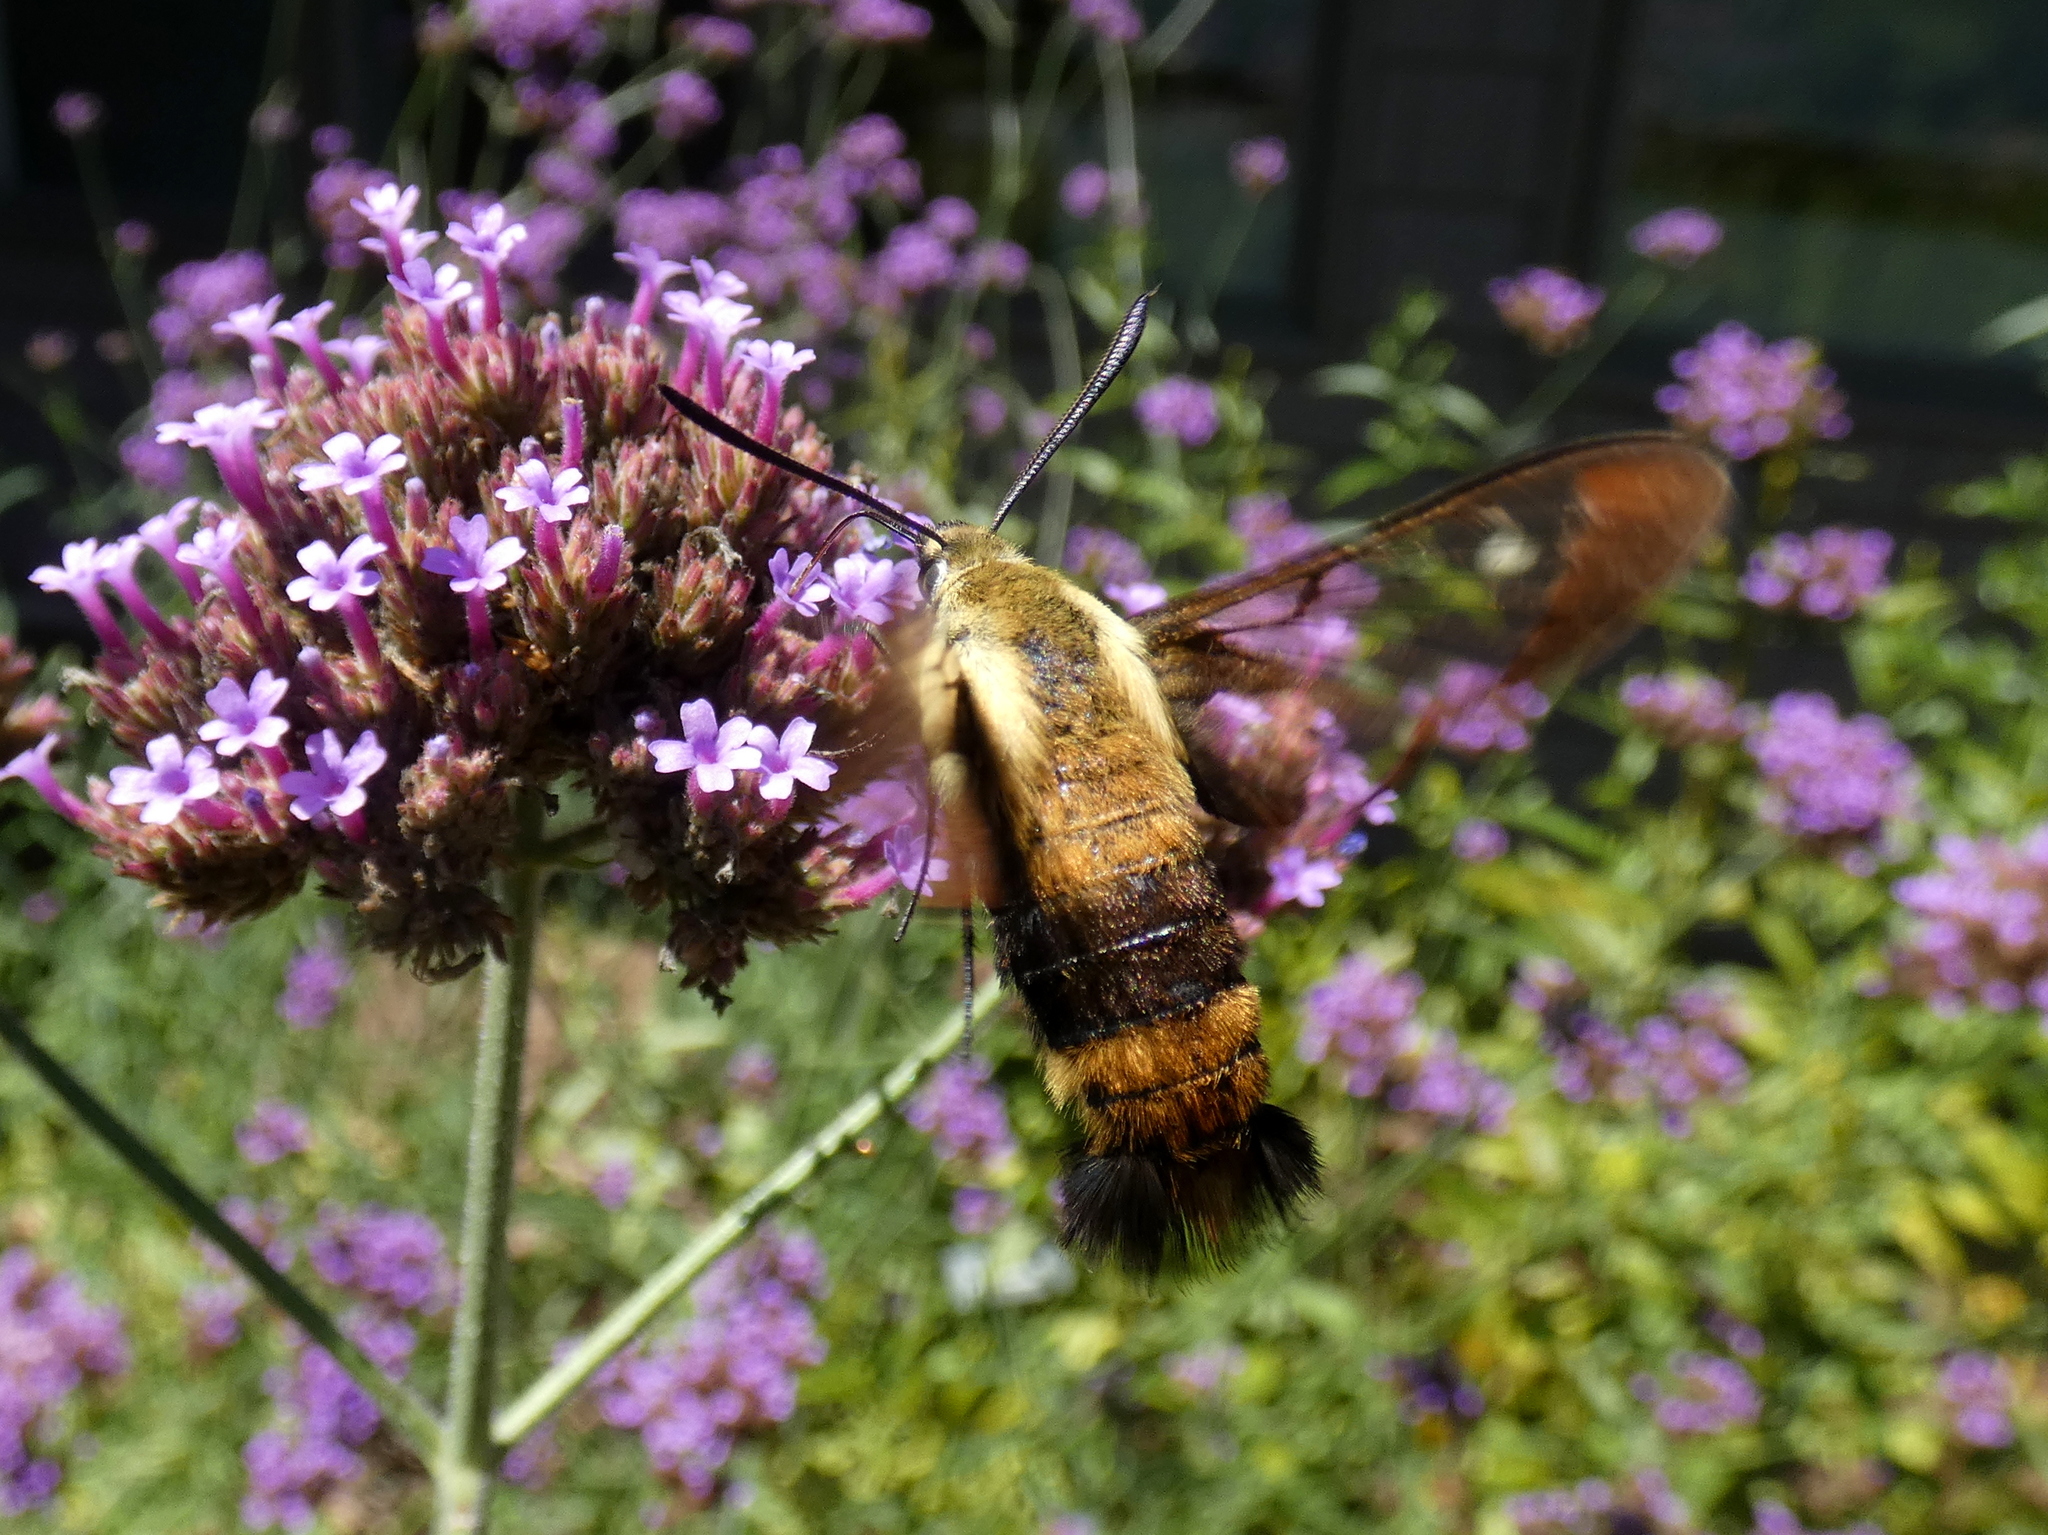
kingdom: Animalia
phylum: Arthropoda
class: Insecta
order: Lepidoptera
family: Sphingidae
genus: Hemaris
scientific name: Hemaris diffinis
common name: Bumblebee moth
